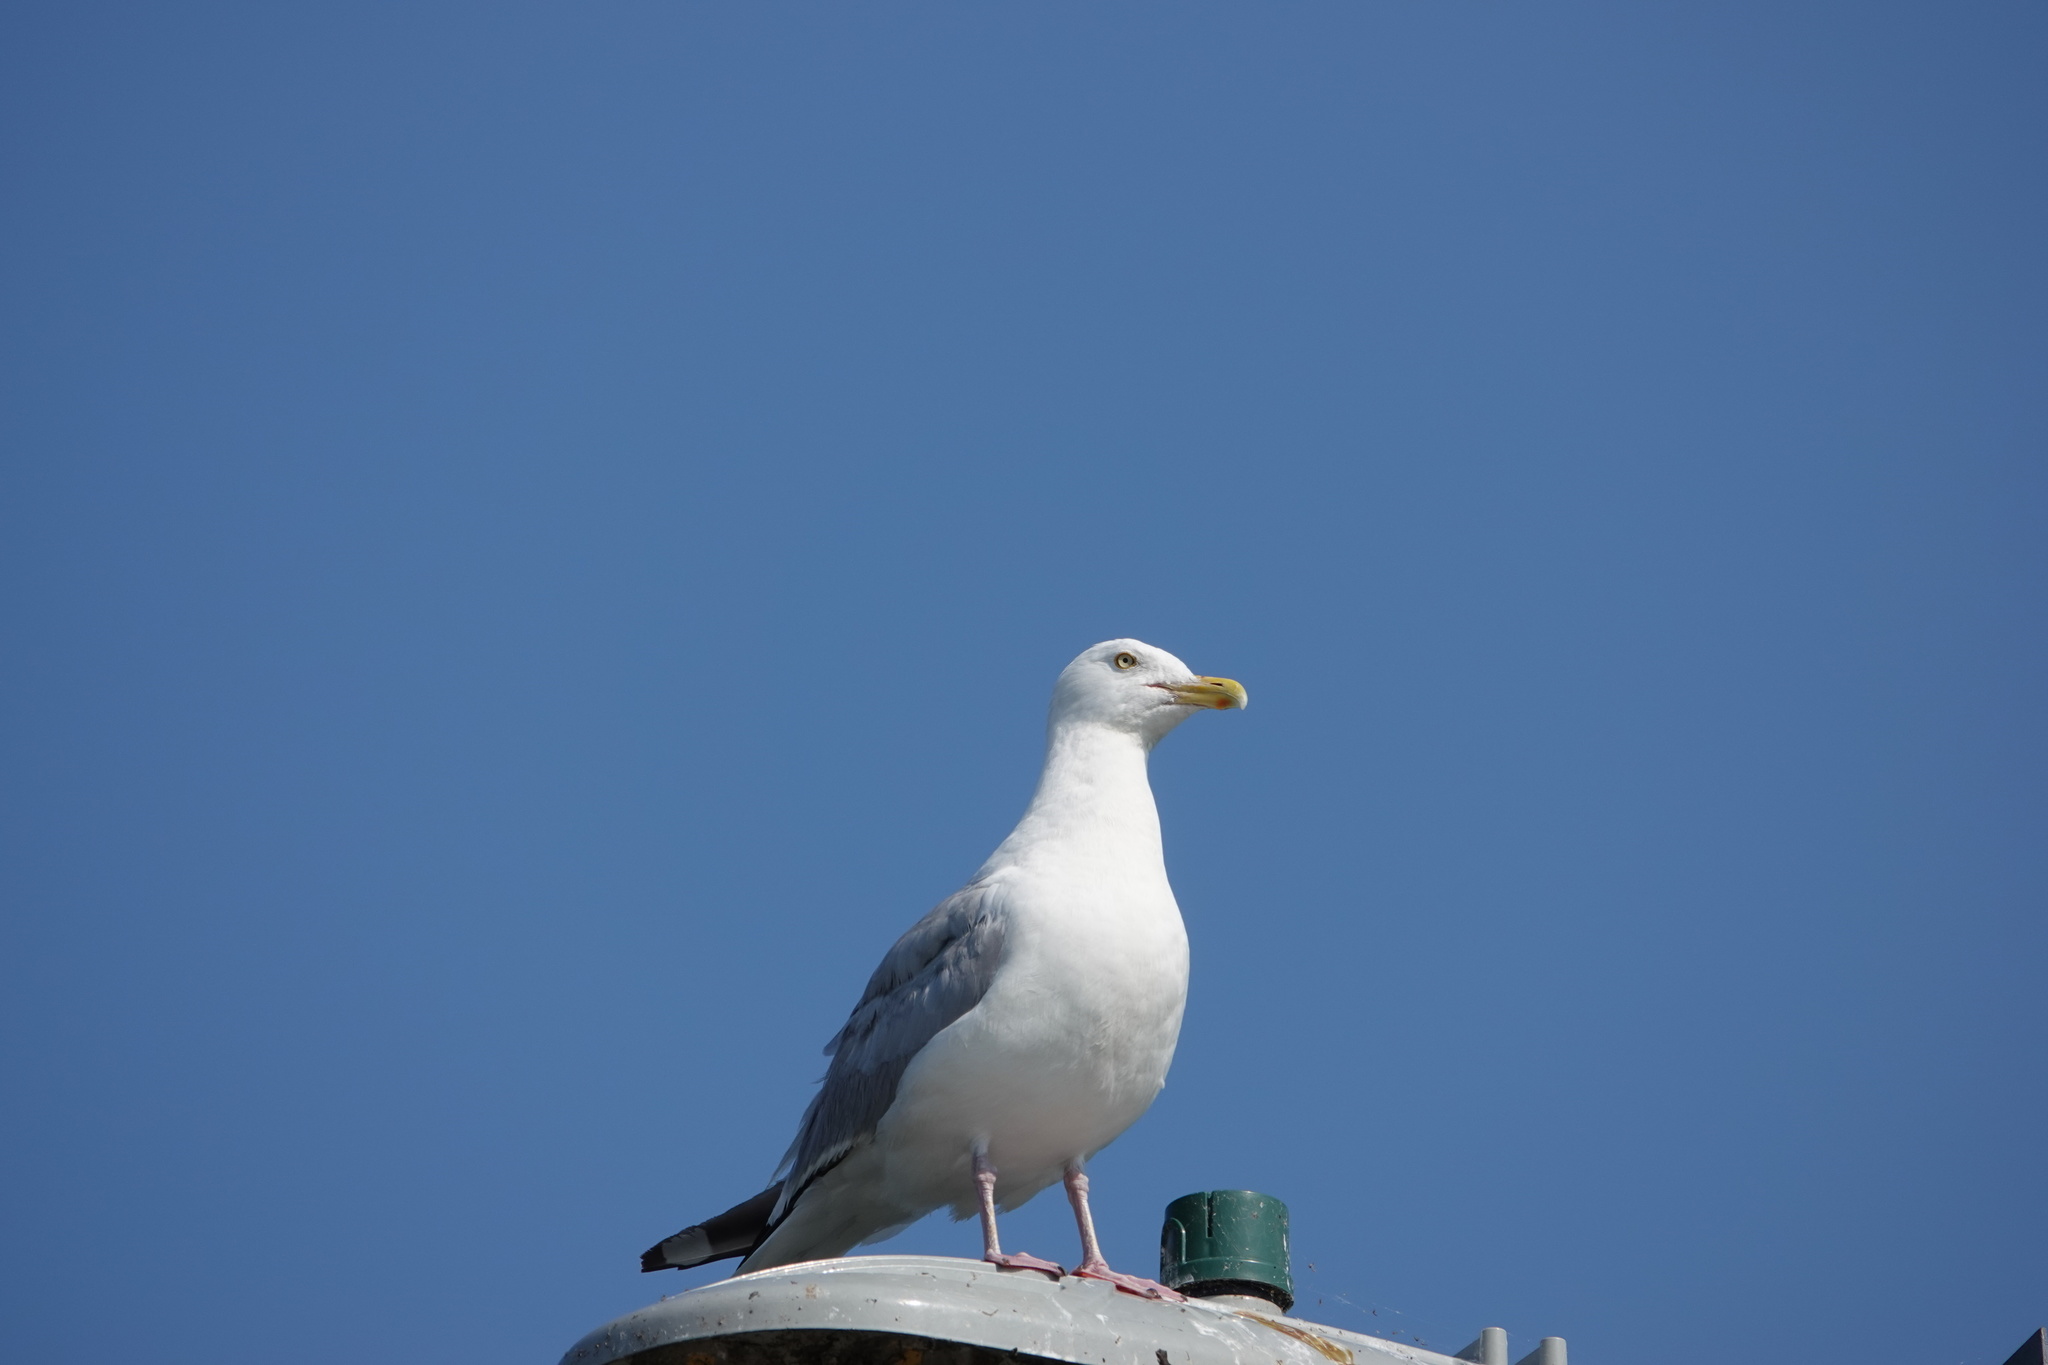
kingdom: Animalia
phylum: Chordata
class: Aves
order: Charadriiformes
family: Laridae
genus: Larus
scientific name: Larus argentatus
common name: Herring gull
